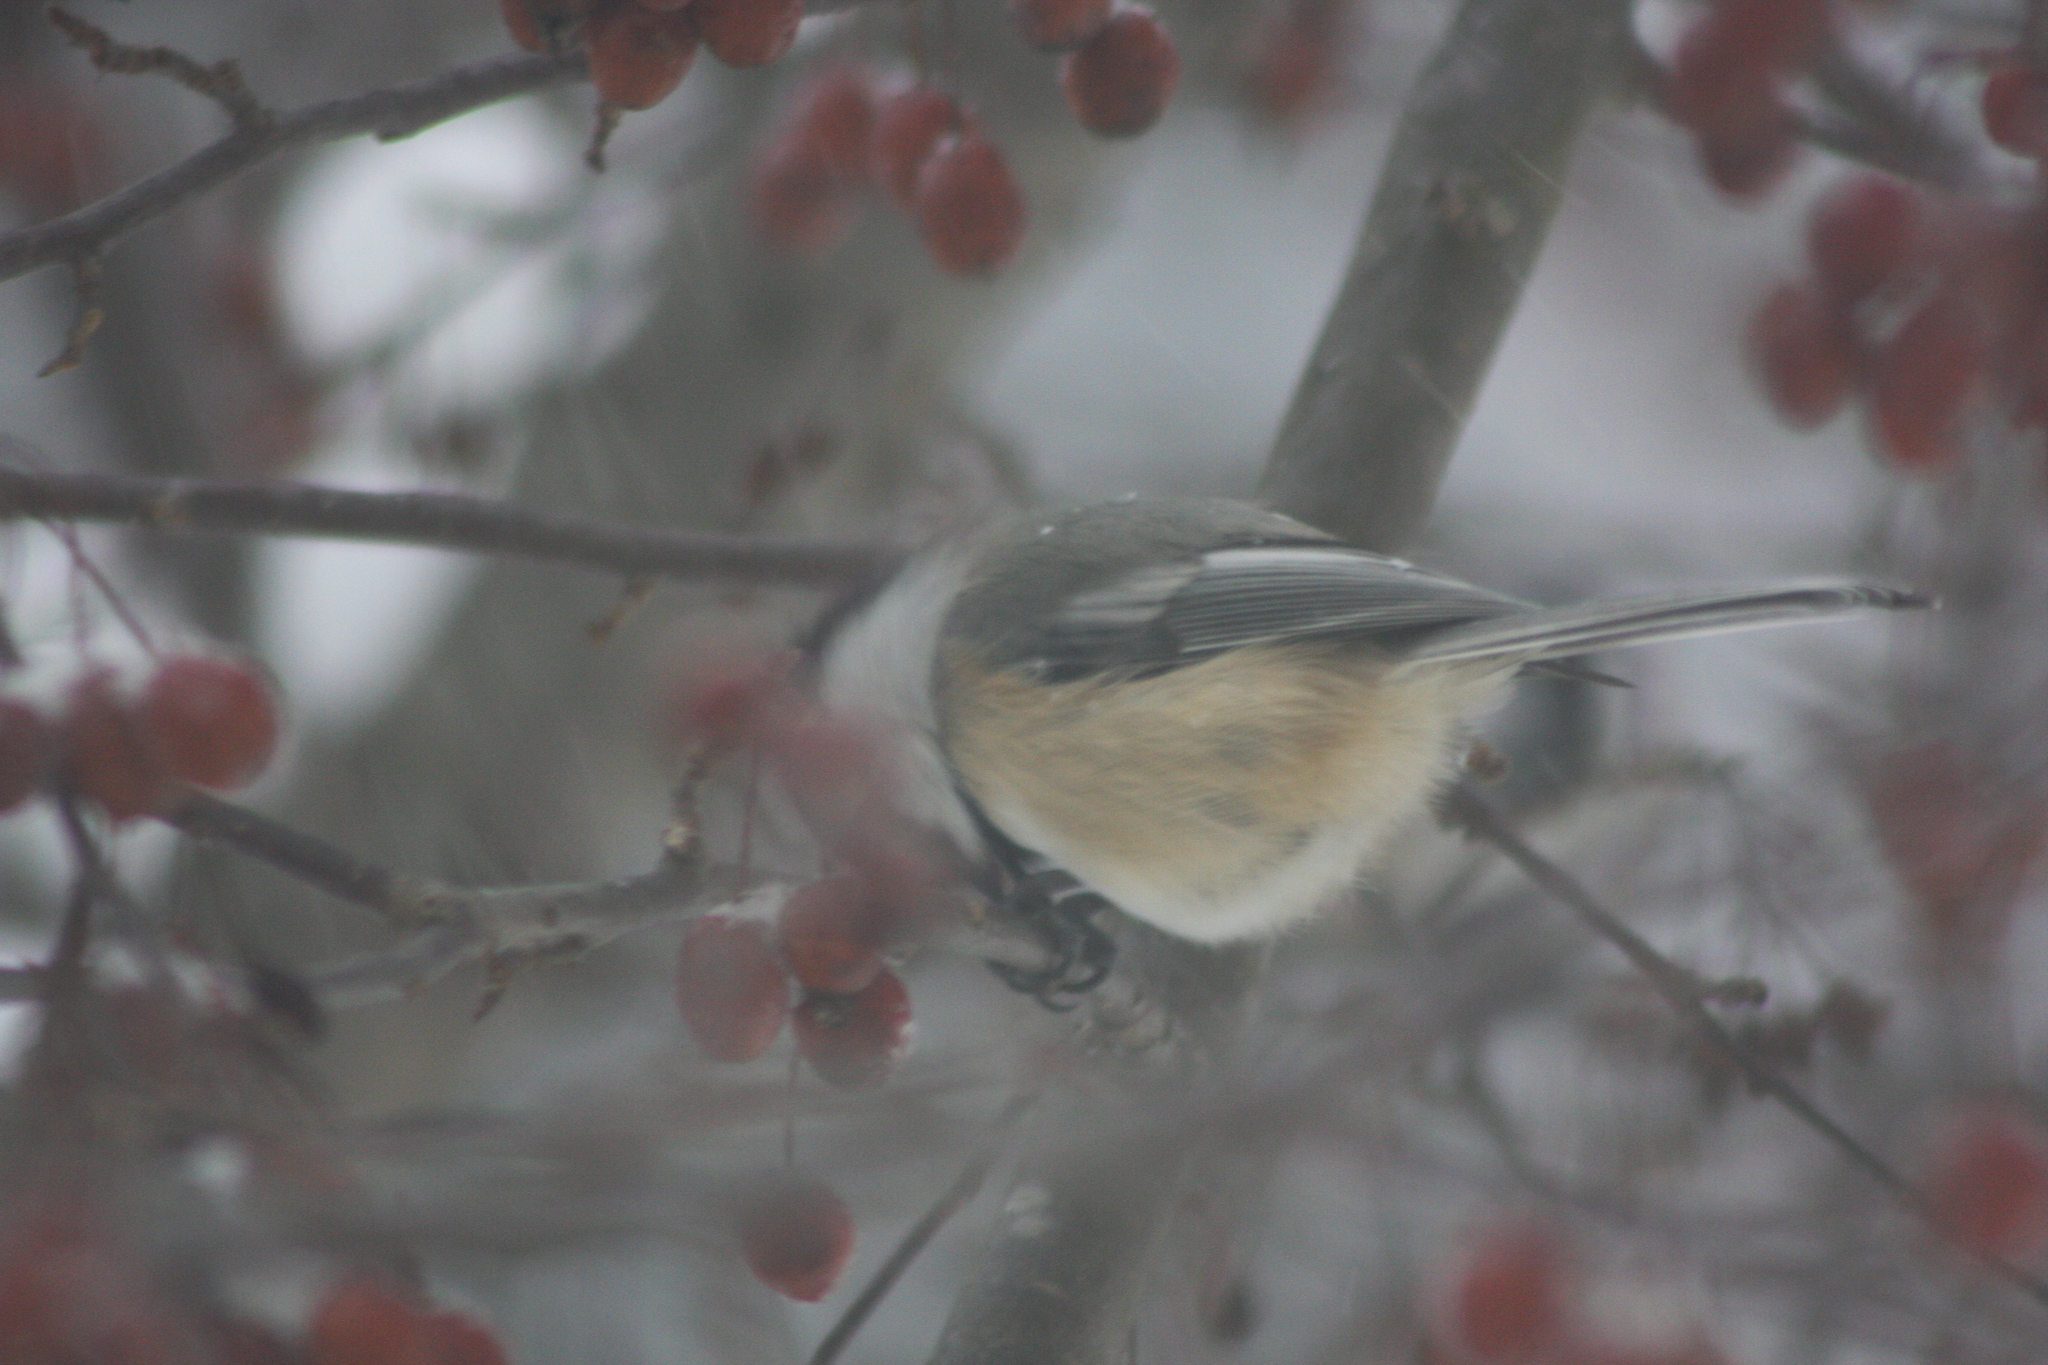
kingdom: Animalia
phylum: Chordata
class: Aves
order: Passeriformes
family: Paridae
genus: Poecile
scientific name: Poecile atricapillus
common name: Black-capped chickadee
